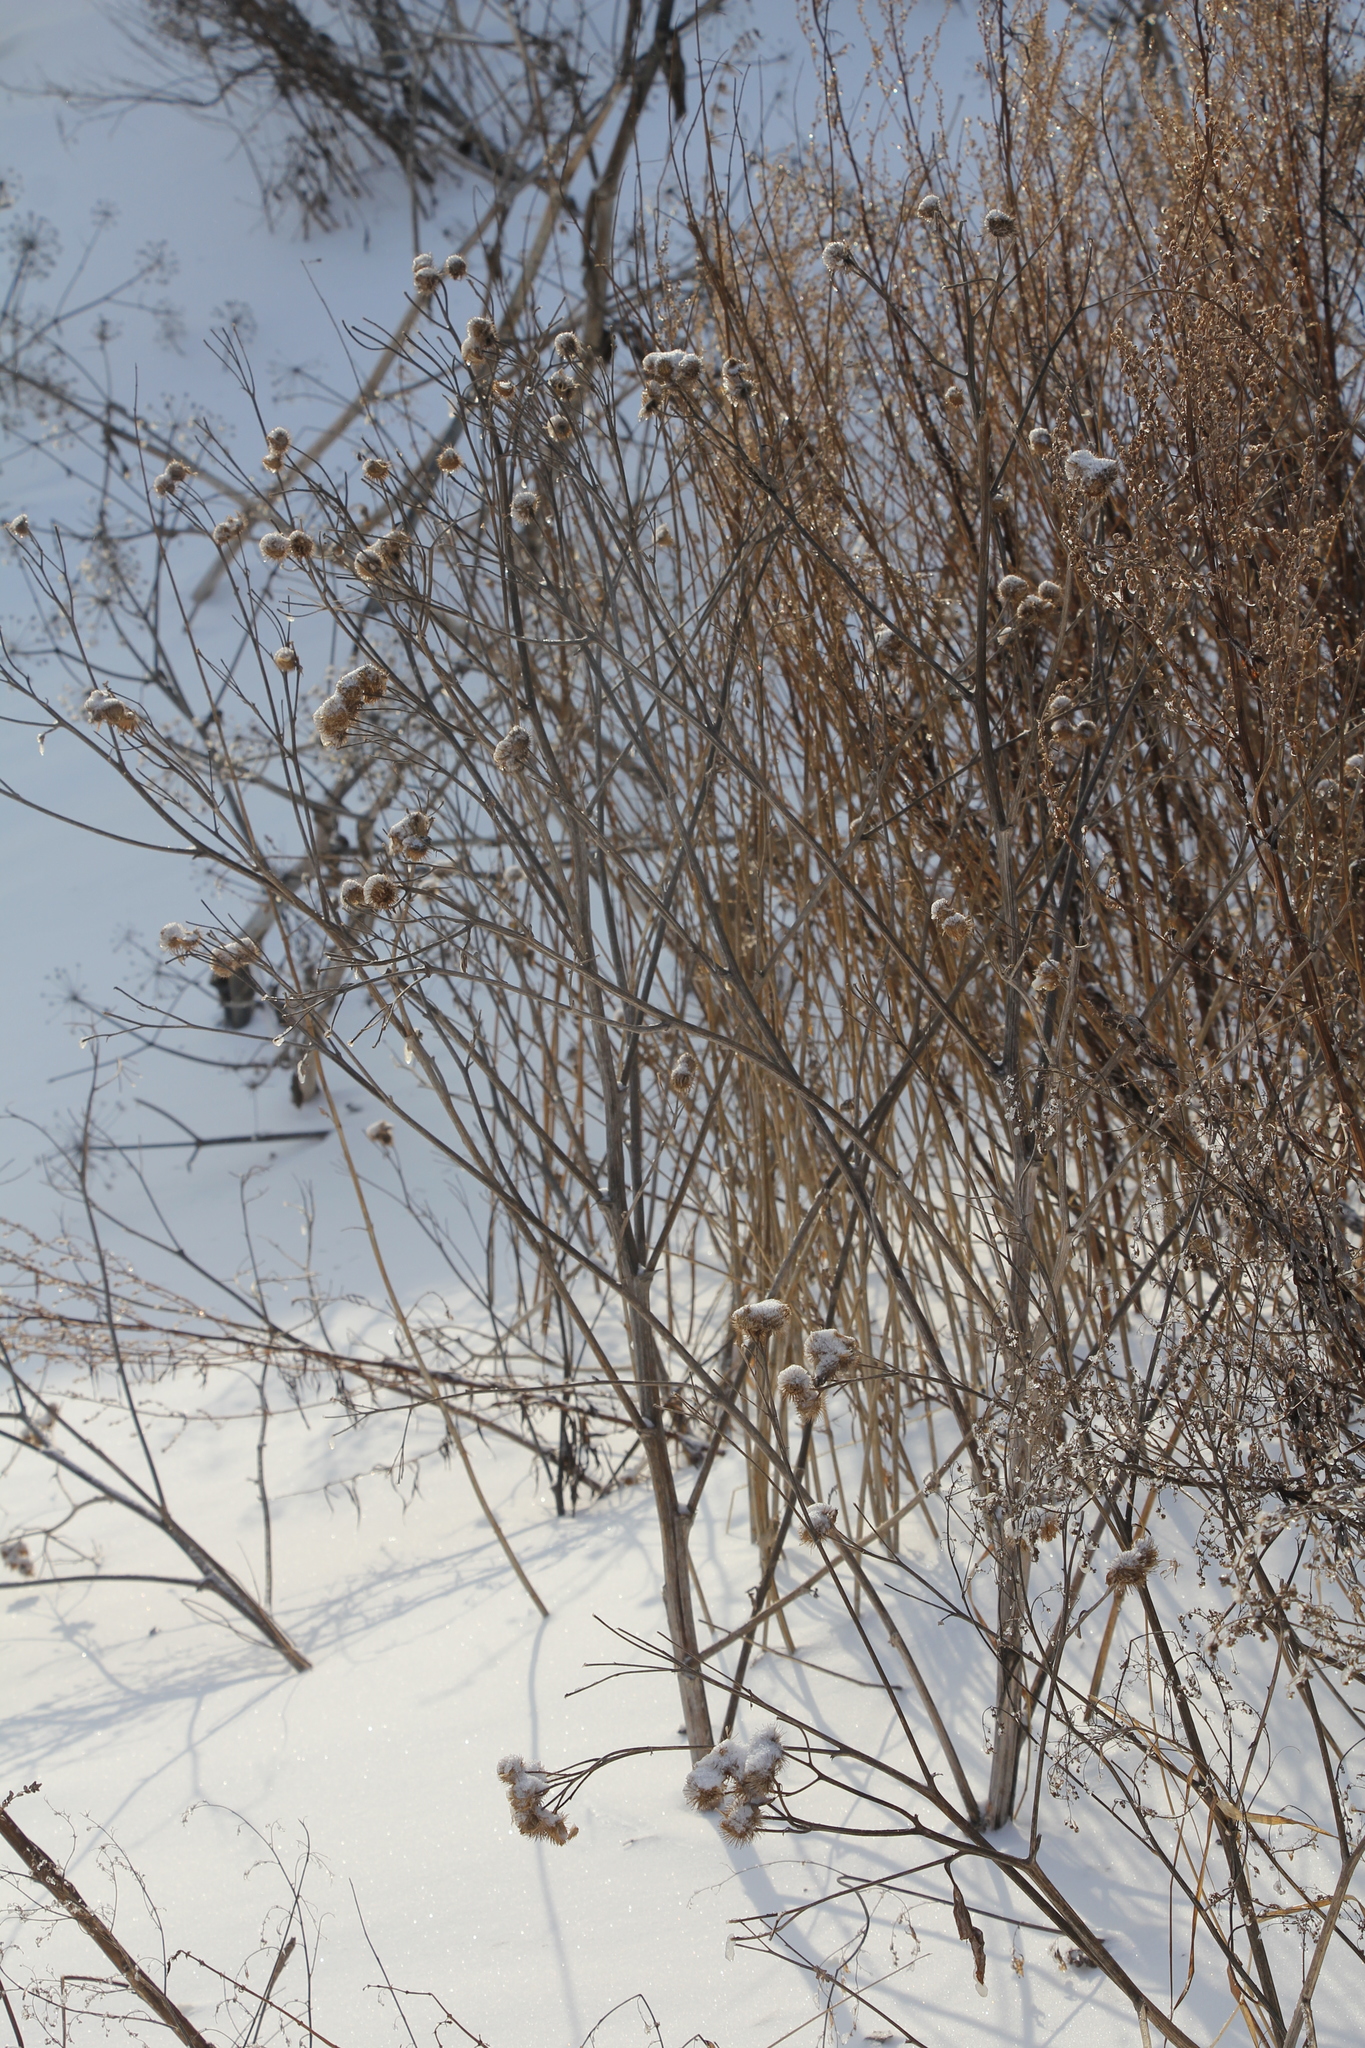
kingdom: Plantae
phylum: Tracheophyta
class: Magnoliopsida
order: Asterales
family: Asteraceae
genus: Arctium
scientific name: Arctium tomentosum
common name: Woolly burdock
